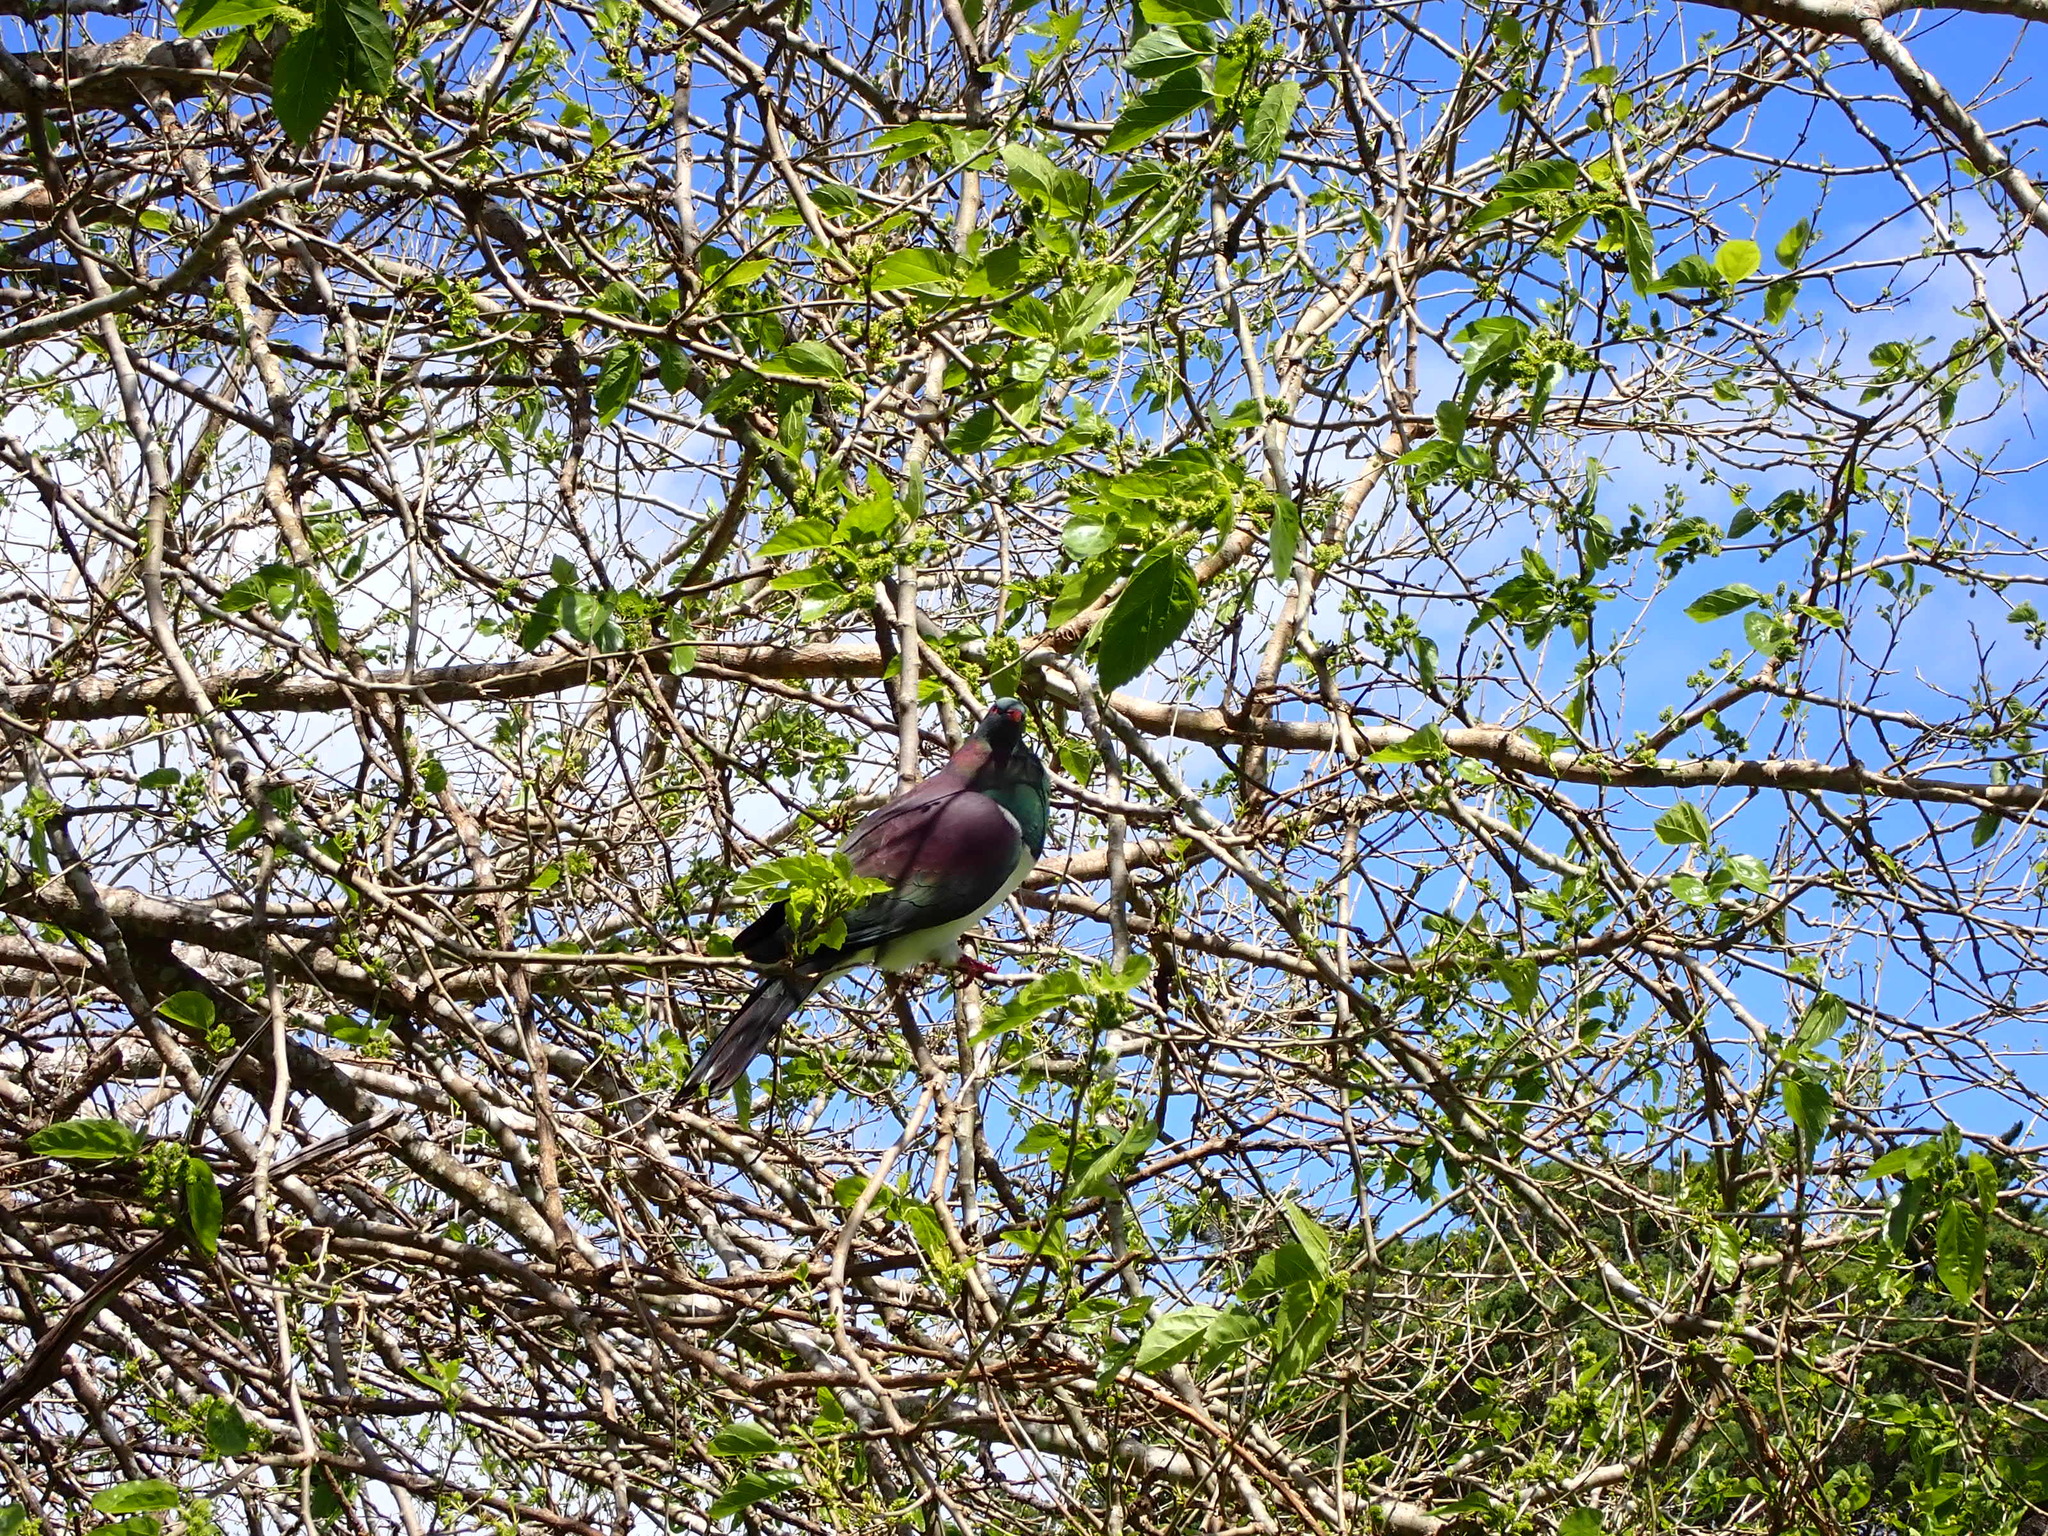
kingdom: Animalia
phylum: Chordata
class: Aves
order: Columbiformes
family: Columbidae
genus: Hemiphaga
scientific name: Hemiphaga novaeseelandiae
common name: New zealand pigeon
